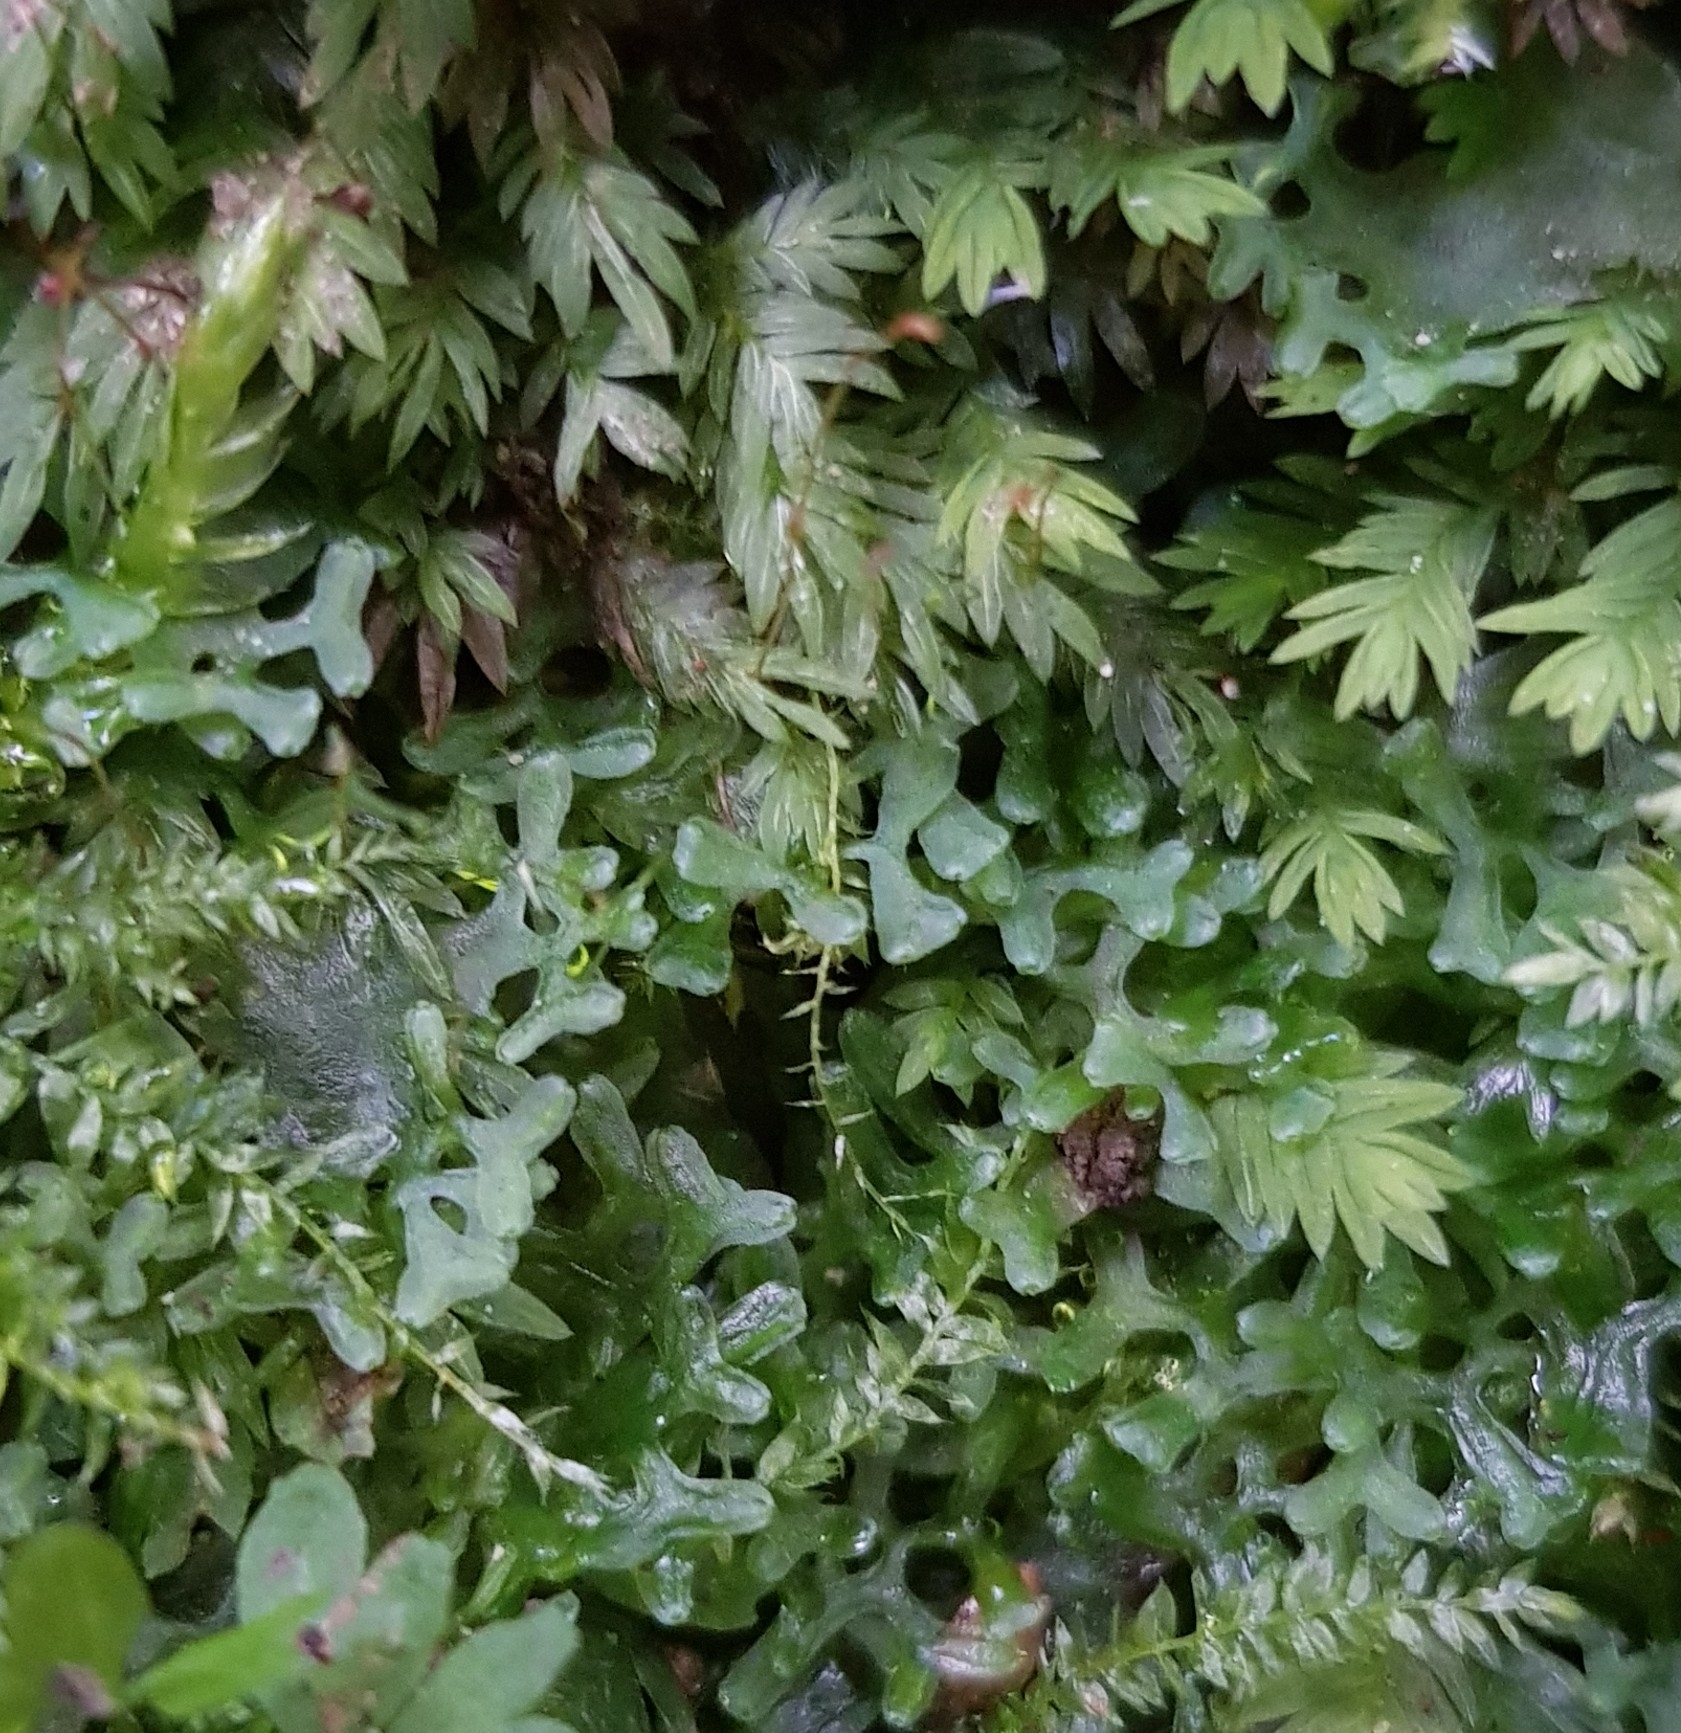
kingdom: Plantae
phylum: Marchantiophyta
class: Jungermanniopsida
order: Pelliales
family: Pelliaceae
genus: Apopellia
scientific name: Apopellia endiviifolia
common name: Endive pellia
